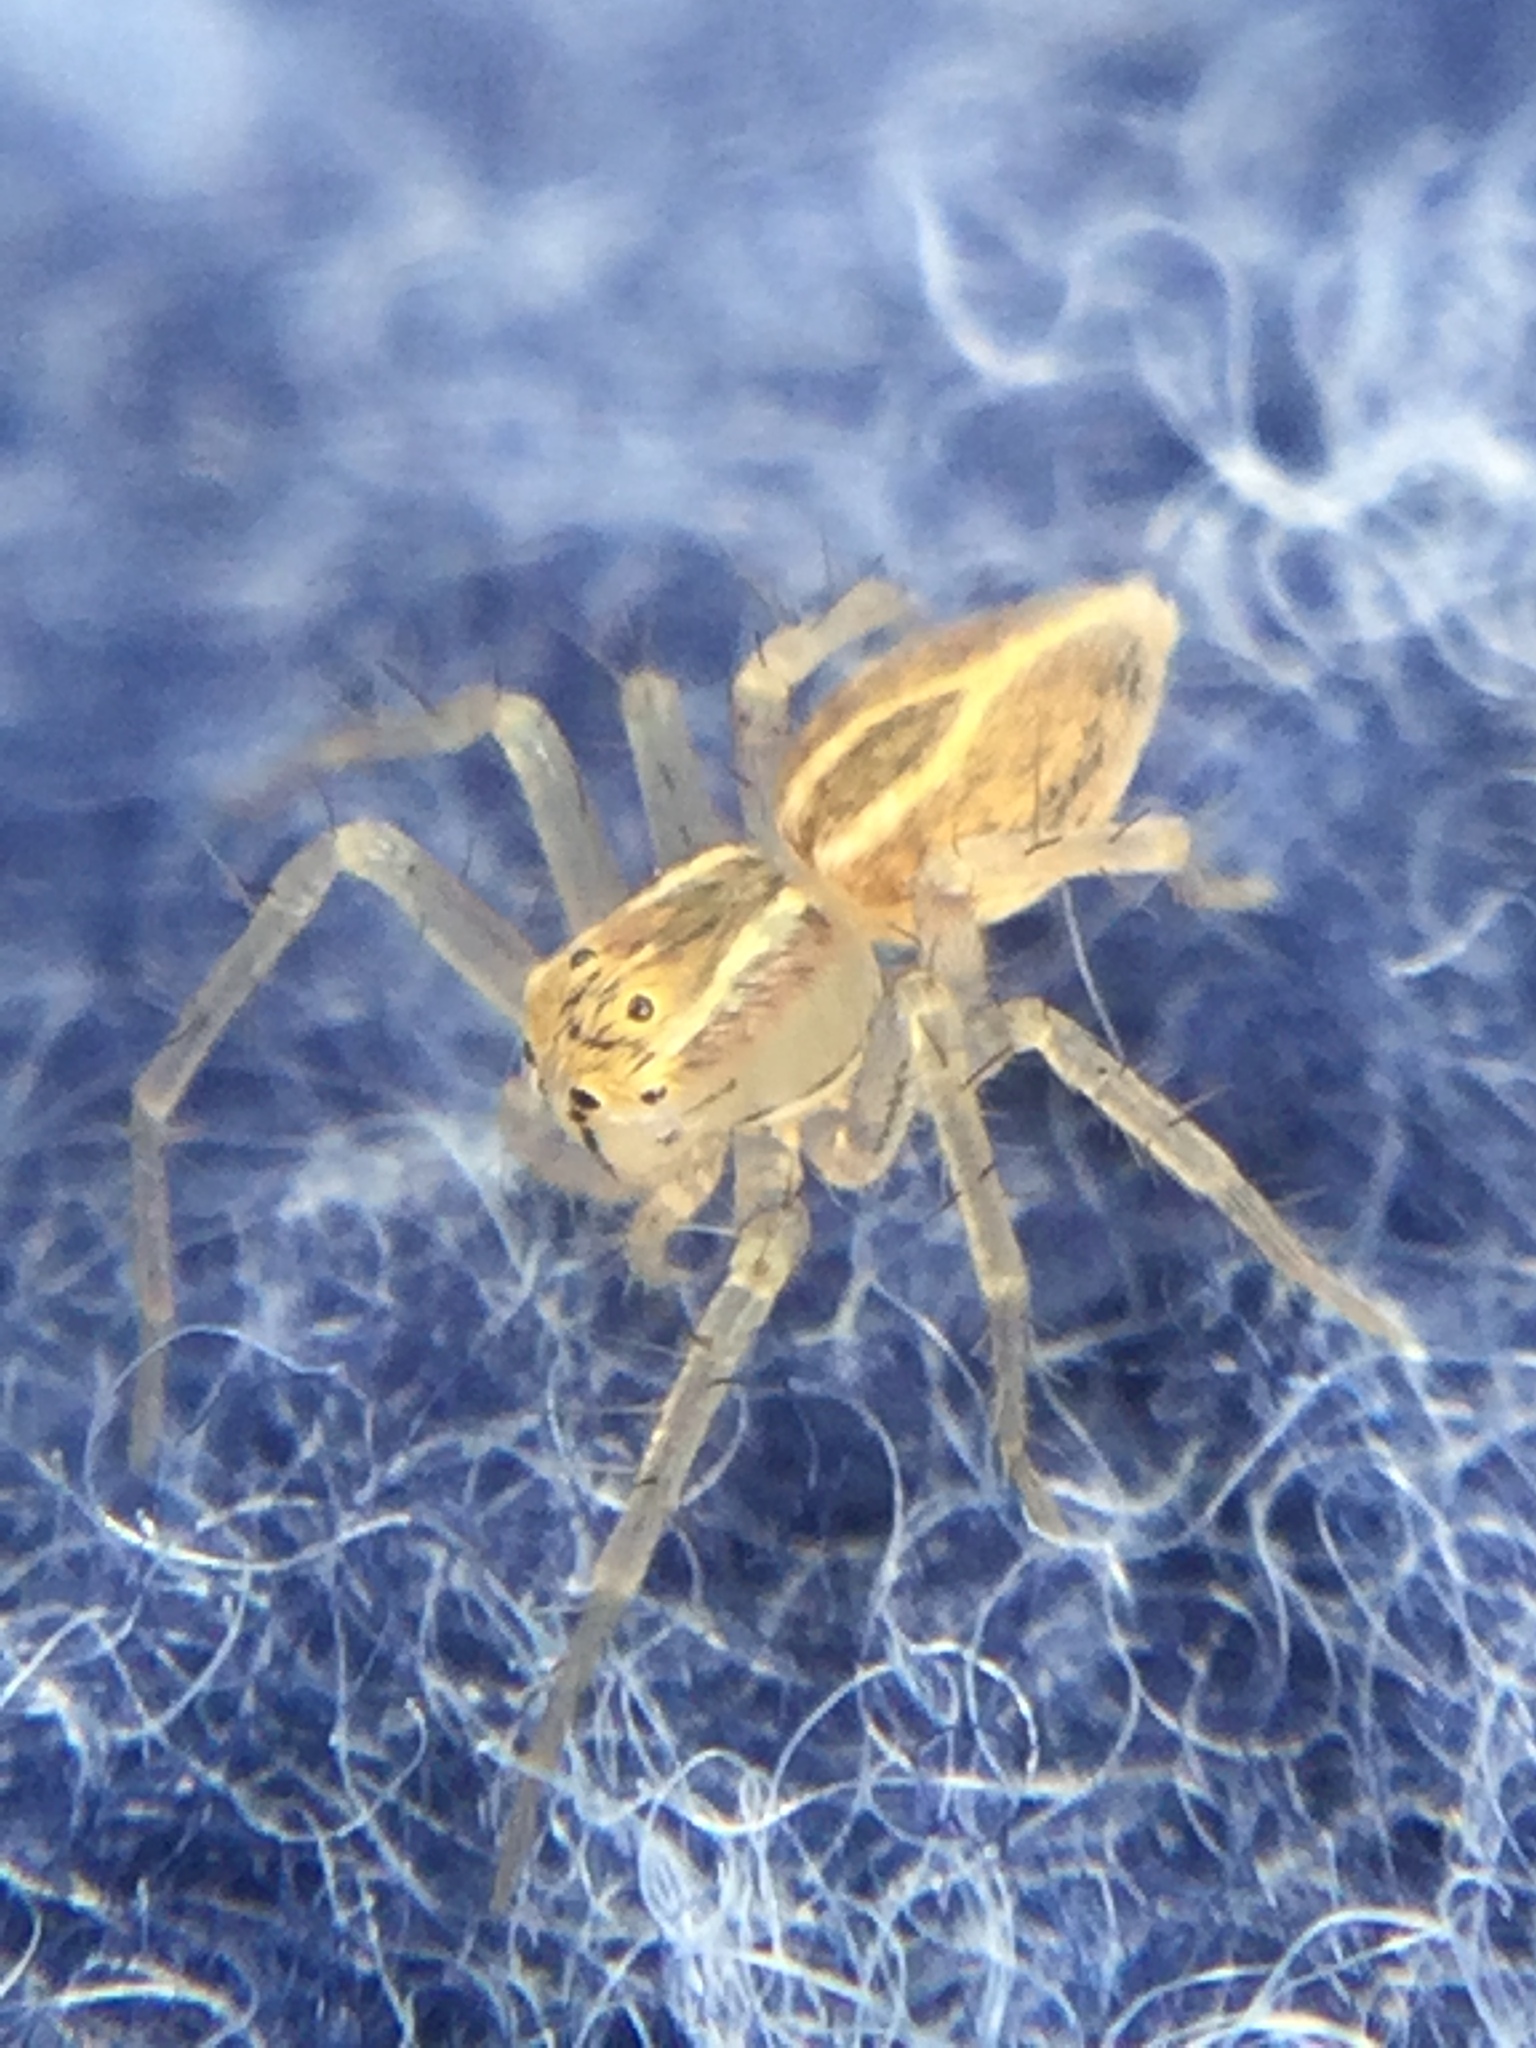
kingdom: Animalia
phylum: Arthropoda
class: Arachnida
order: Araneae
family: Oxyopidae
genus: Oxyopes
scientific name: Oxyopes salticus
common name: Lynx spiders
